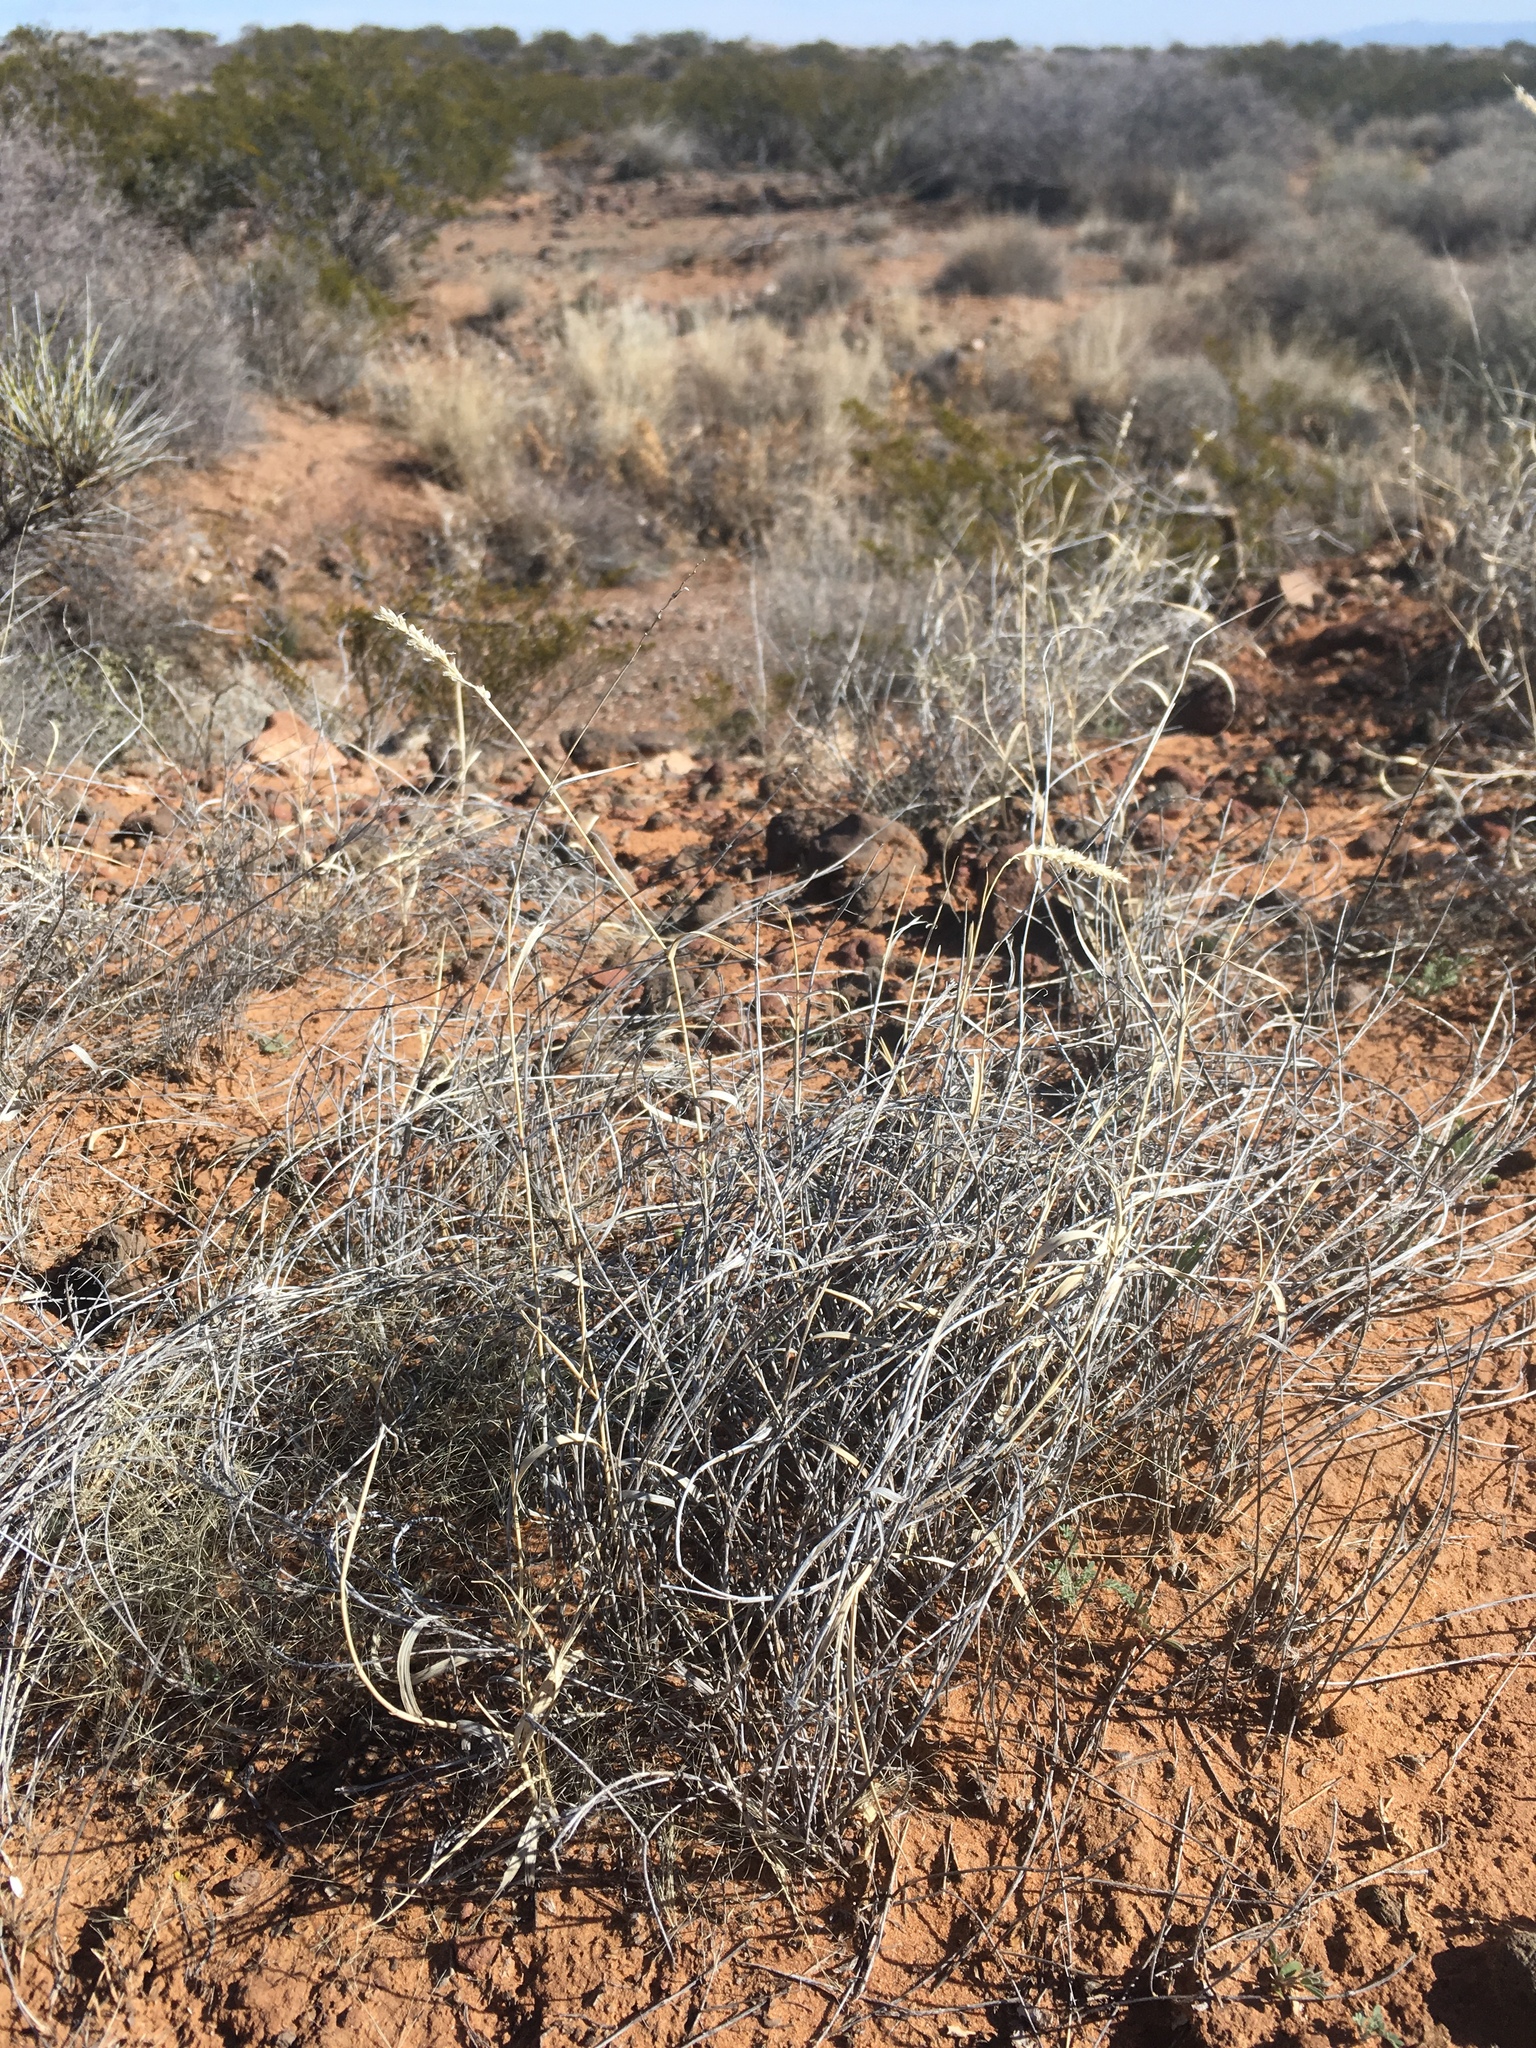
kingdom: Plantae
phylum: Tracheophyta
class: Liliopsida
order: Poales
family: Poaceae
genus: Hilaria
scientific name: Hilaria mutica
